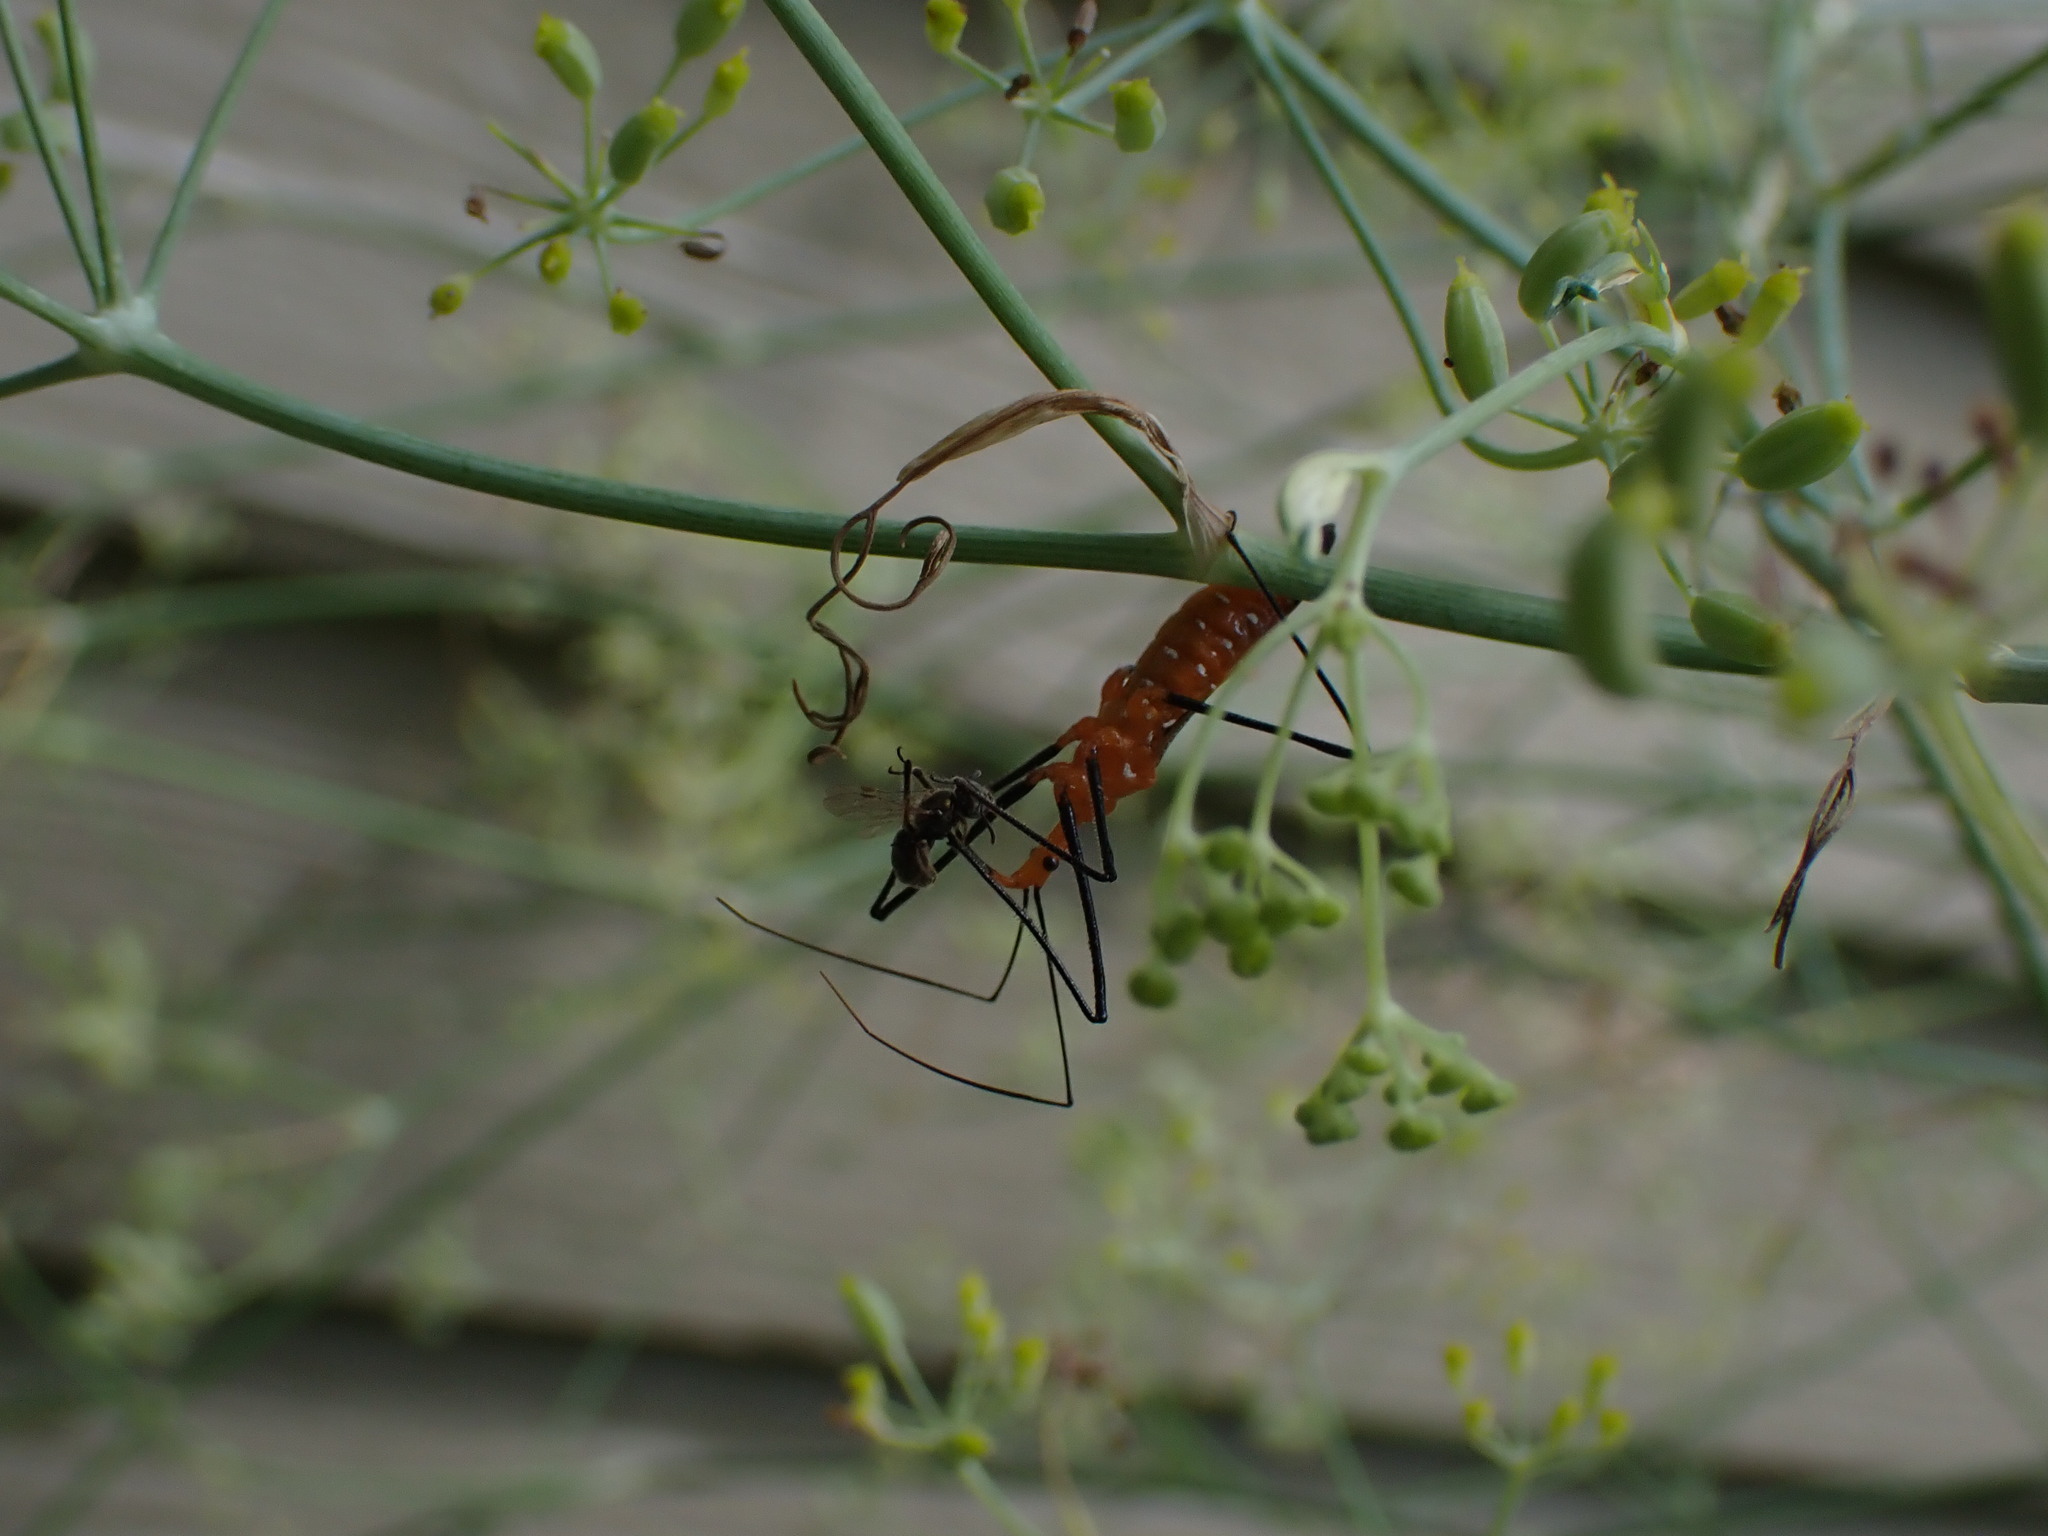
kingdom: Animalia
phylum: Arthropoda
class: Insecta
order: Hemiptera
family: Reduviidae
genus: Zelus
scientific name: Zelus longipes
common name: Milkweed assassin bug
